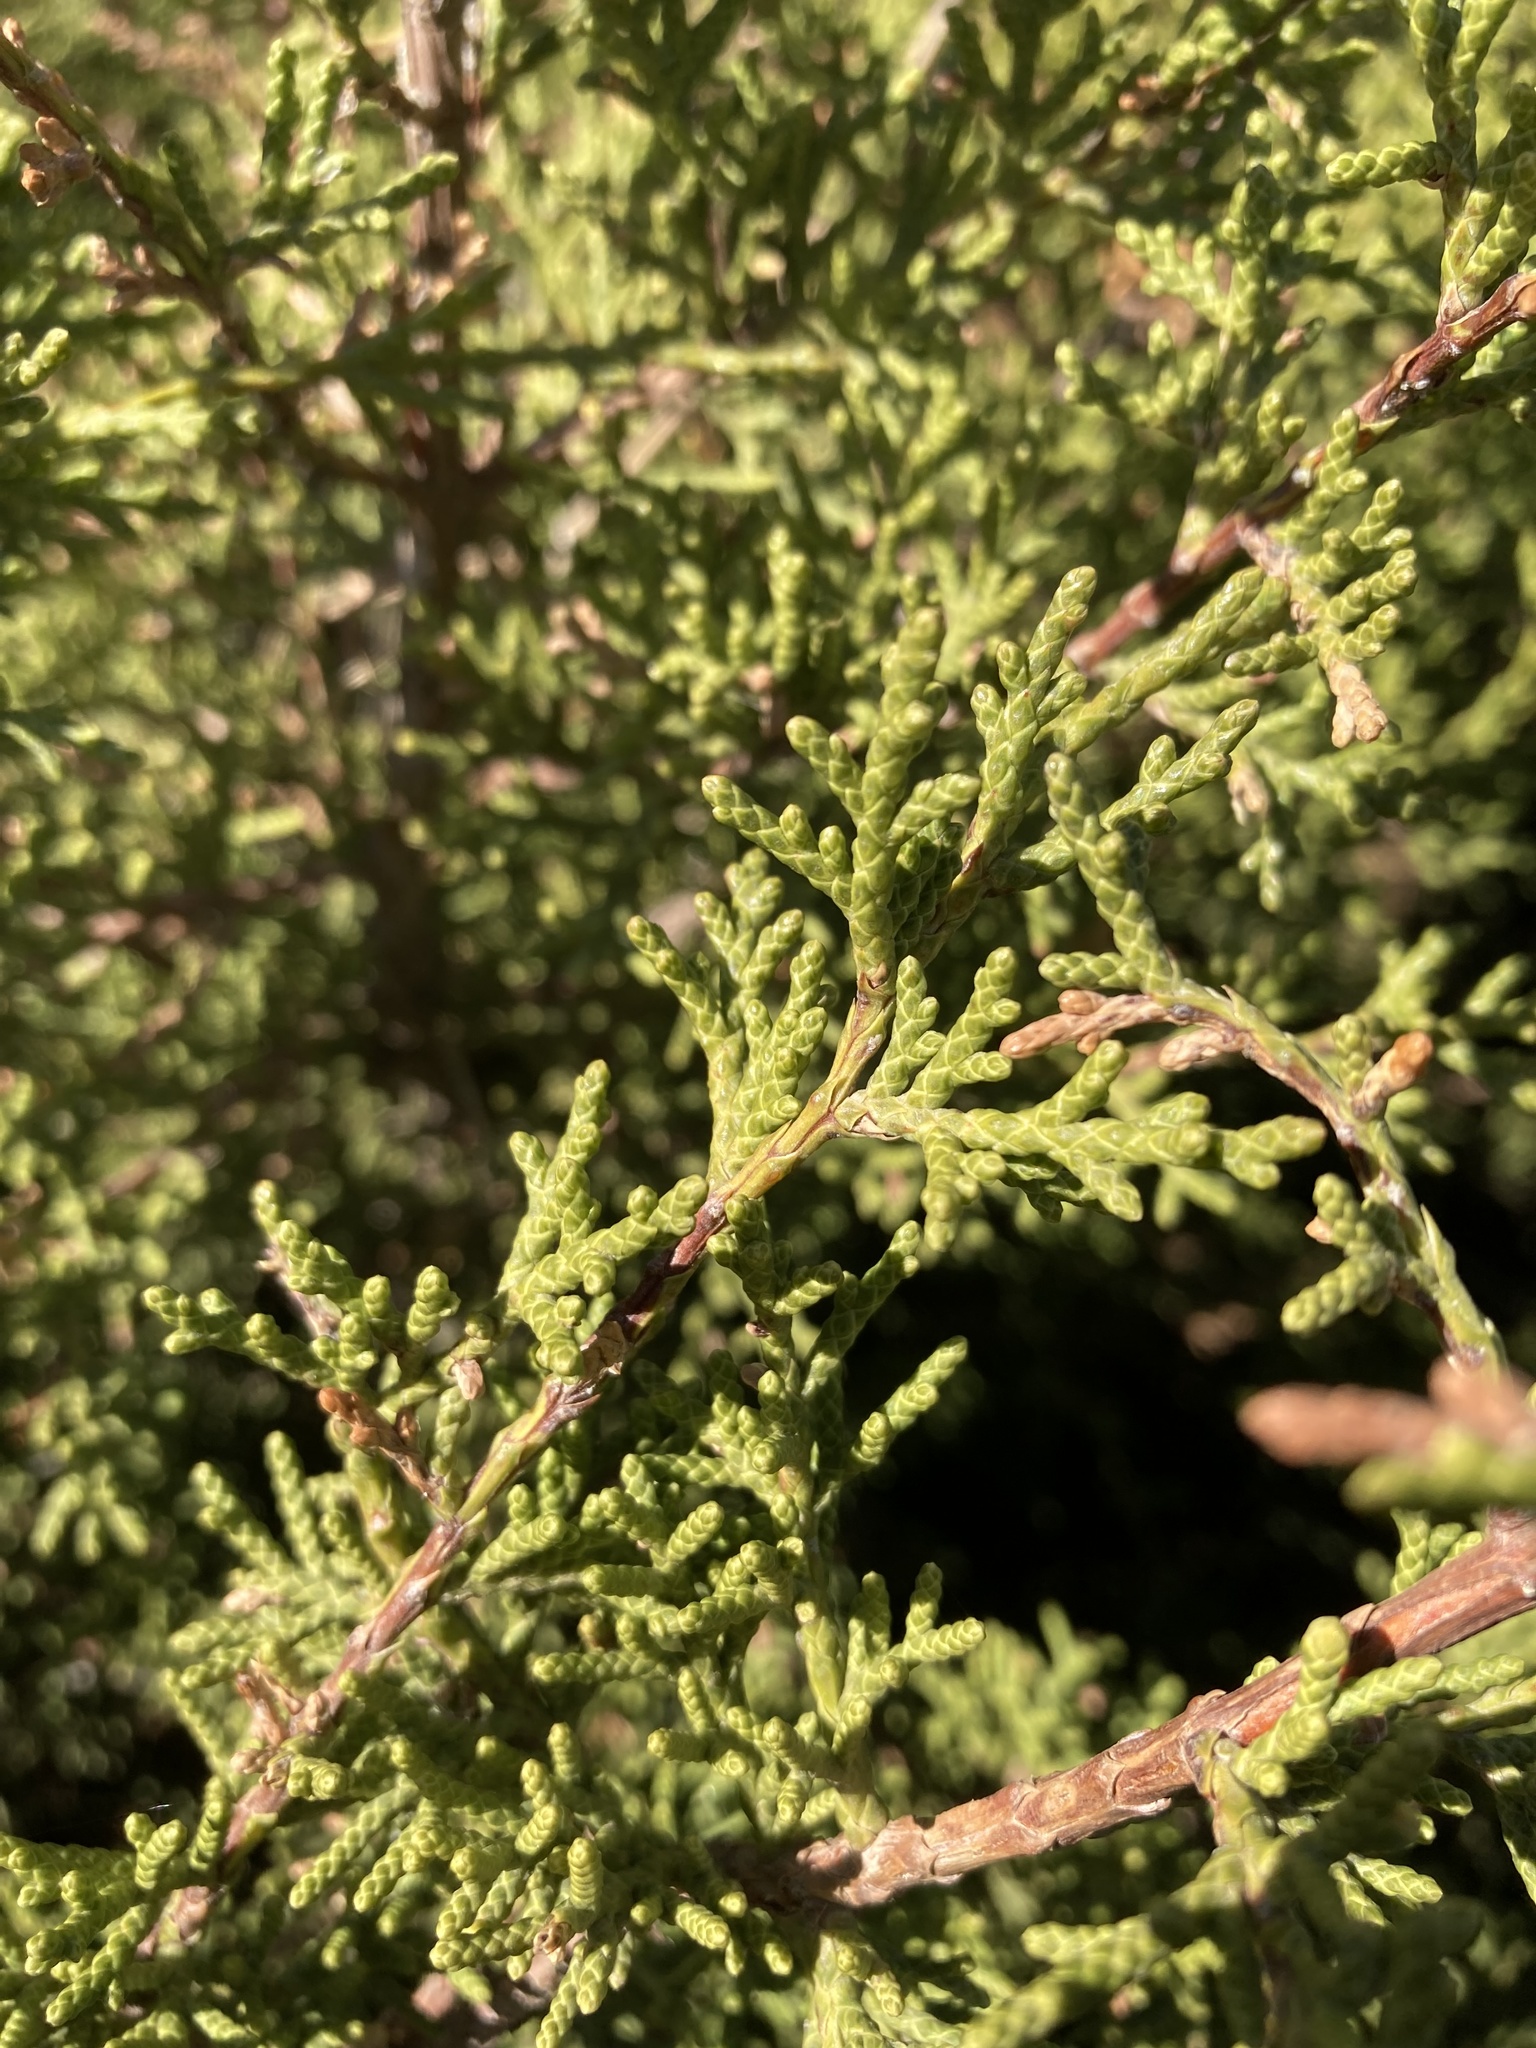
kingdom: Plantae
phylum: Tracheophyta
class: Pinopsida
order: Pinales
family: Cupressaceae
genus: Juniperus
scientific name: Juniperus californica
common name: California juniper
